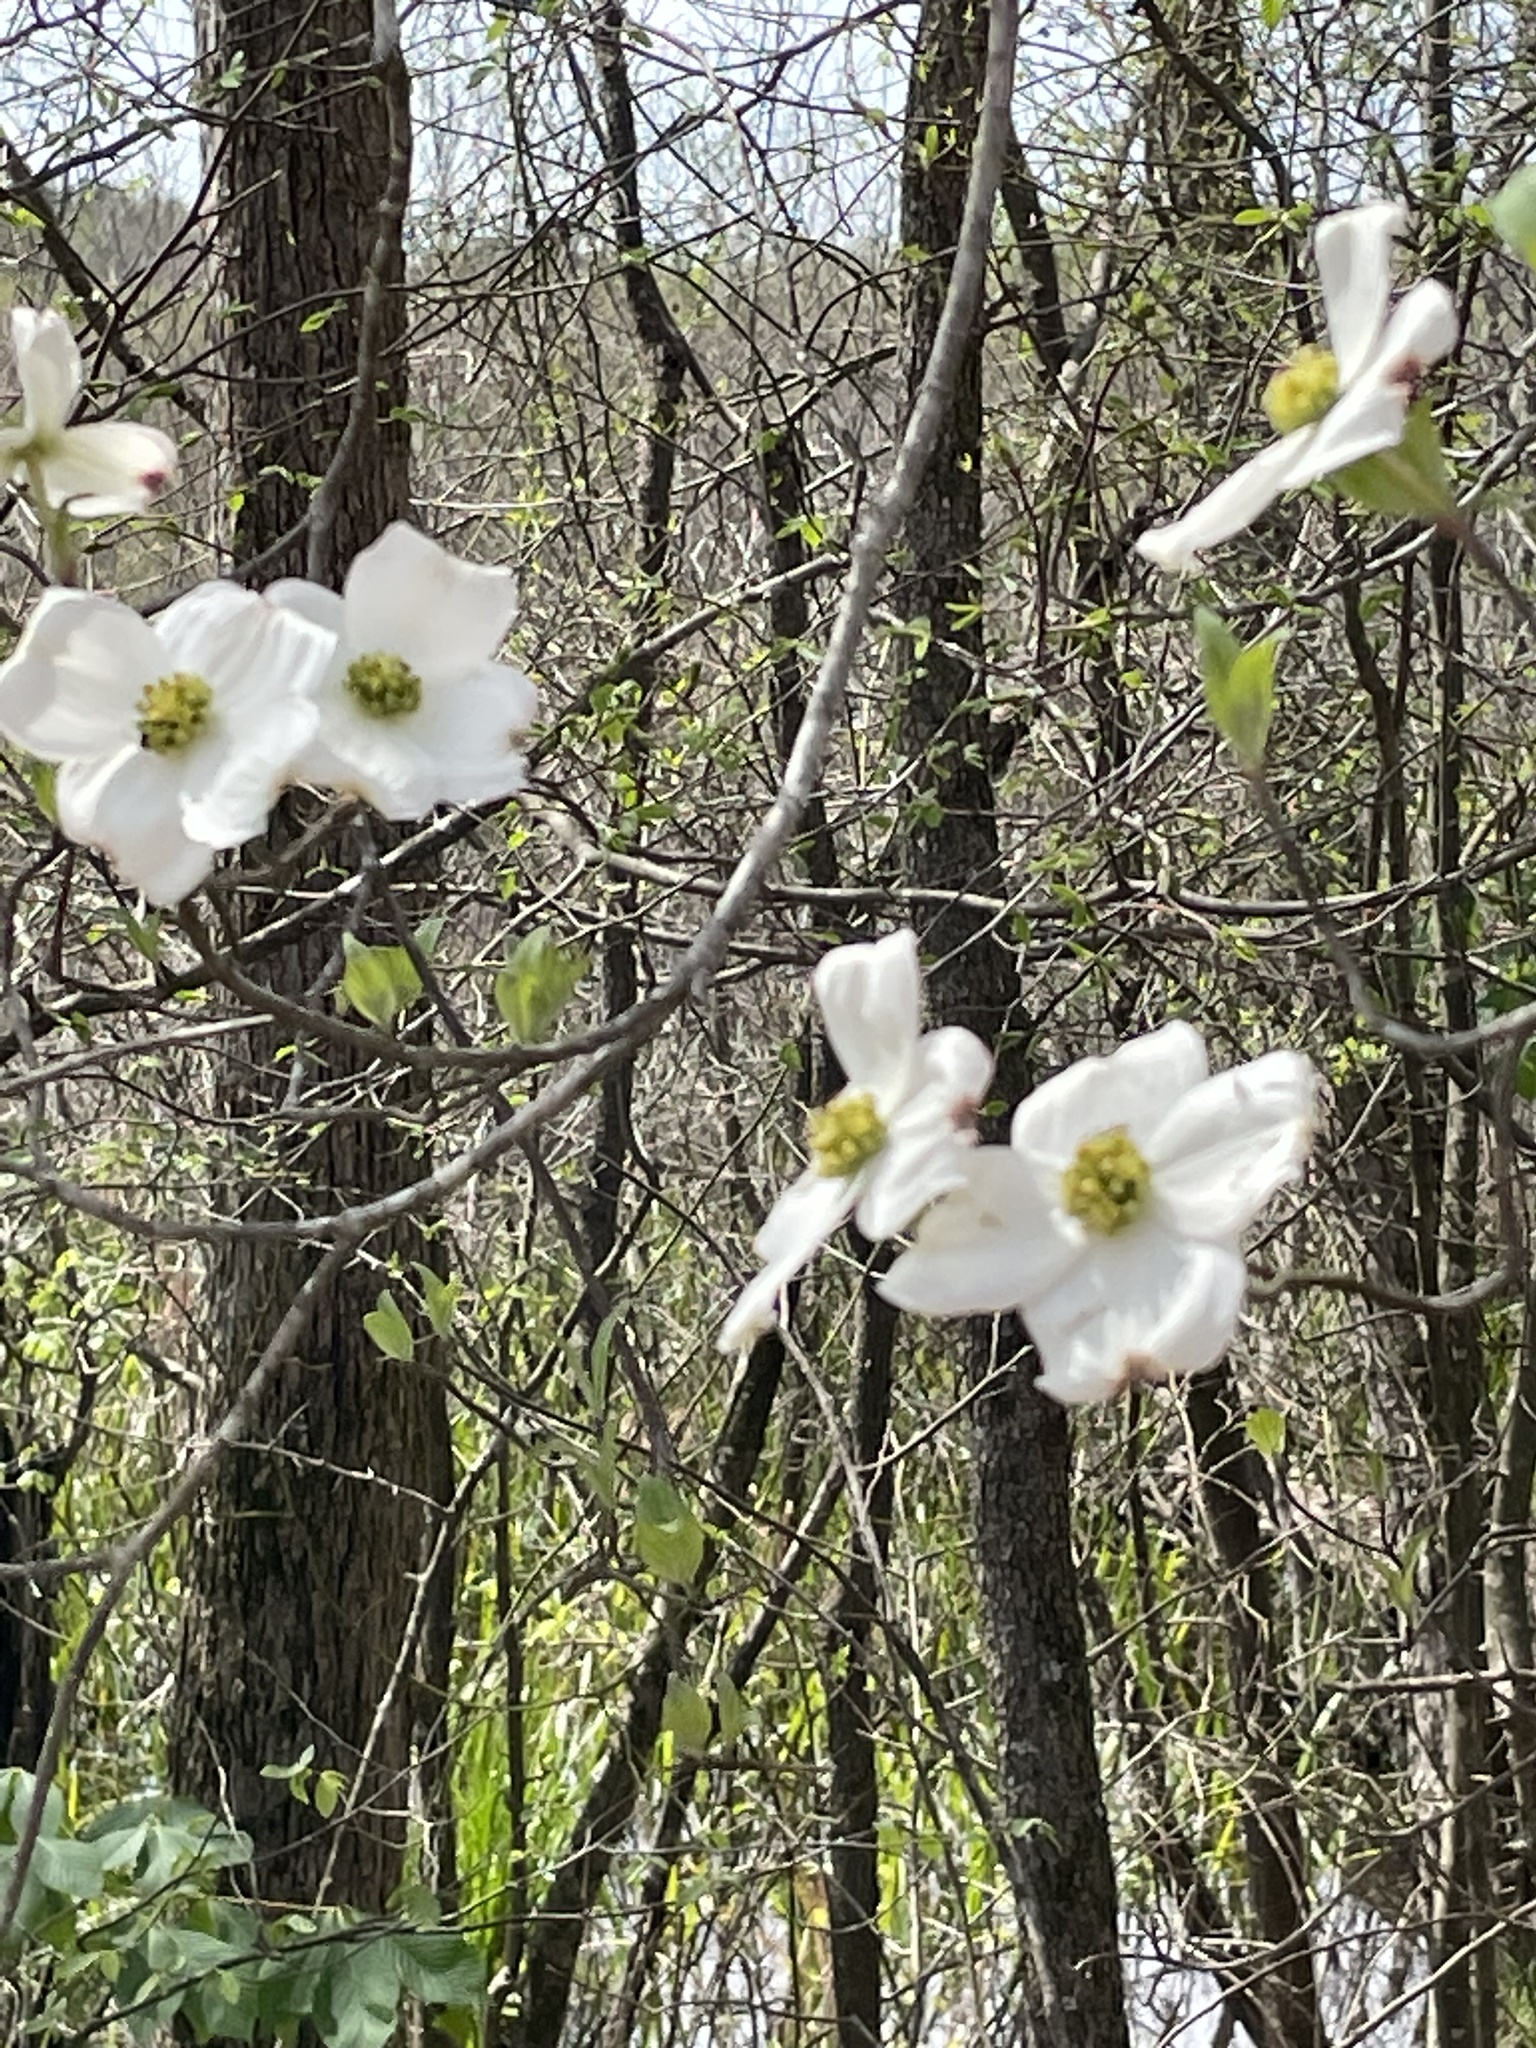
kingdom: Plantae
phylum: Tracheophyta
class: Magnoliopsida
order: Cornales
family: Cornaceae
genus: Cornus
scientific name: Cornus florida
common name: Flowering dogwood
